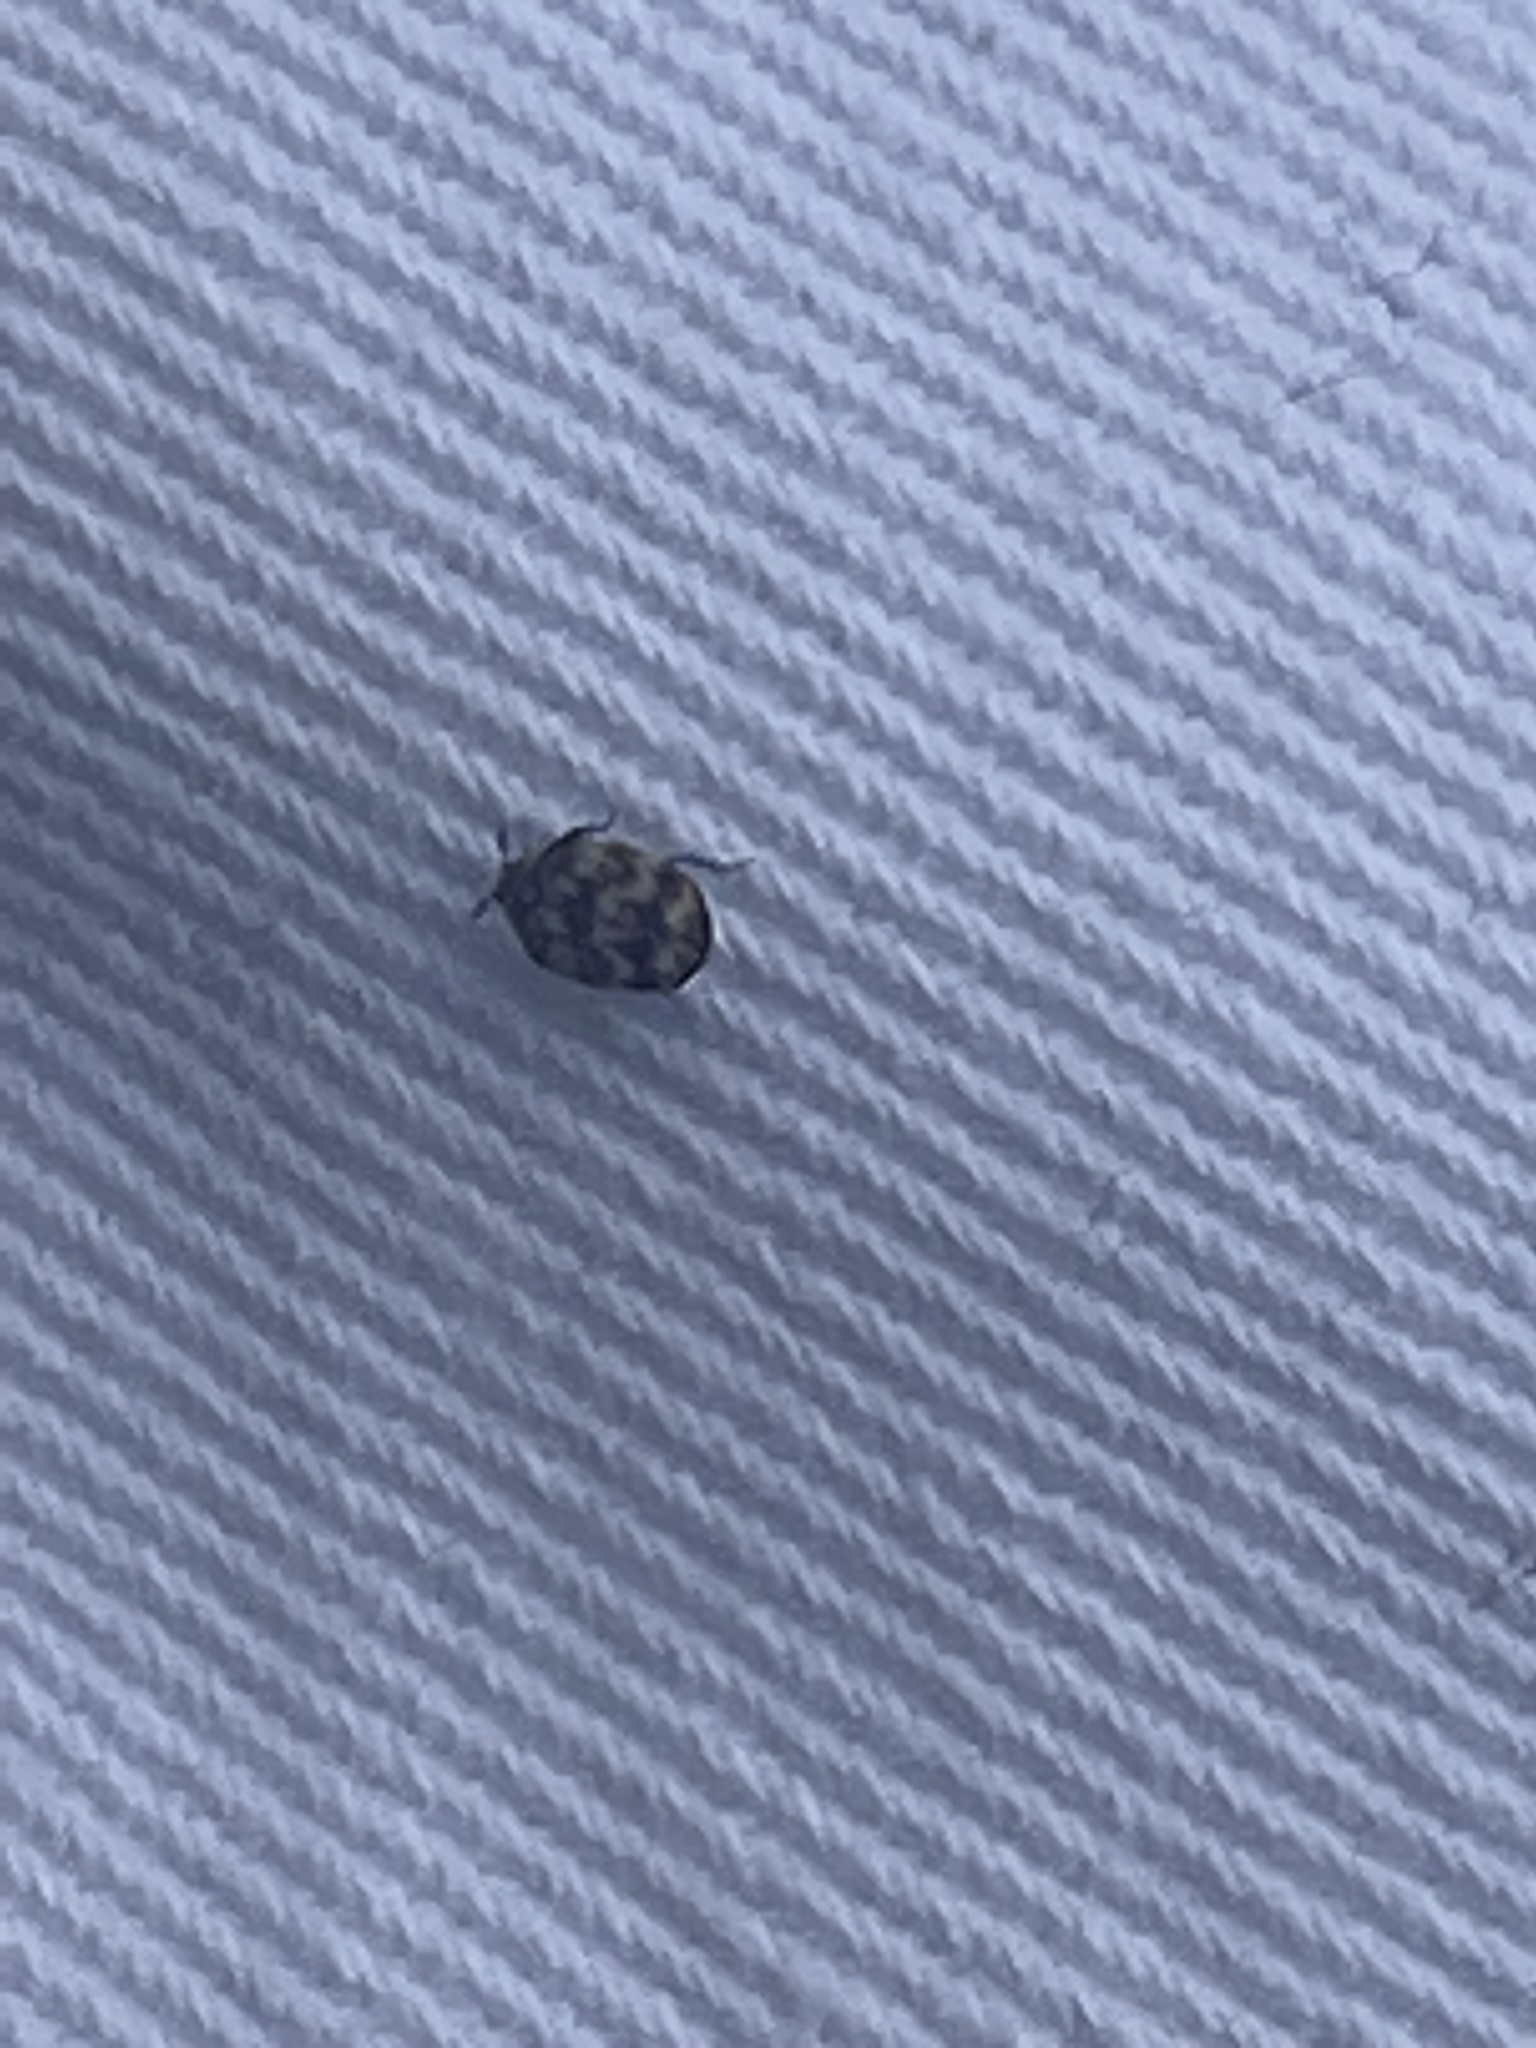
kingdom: Animalia
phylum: Arthropoda
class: Insecta
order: Coleoptera
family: Dermestidae
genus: Anthrenus
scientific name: Anthrenus verbasci
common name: Varied carpet beetle
